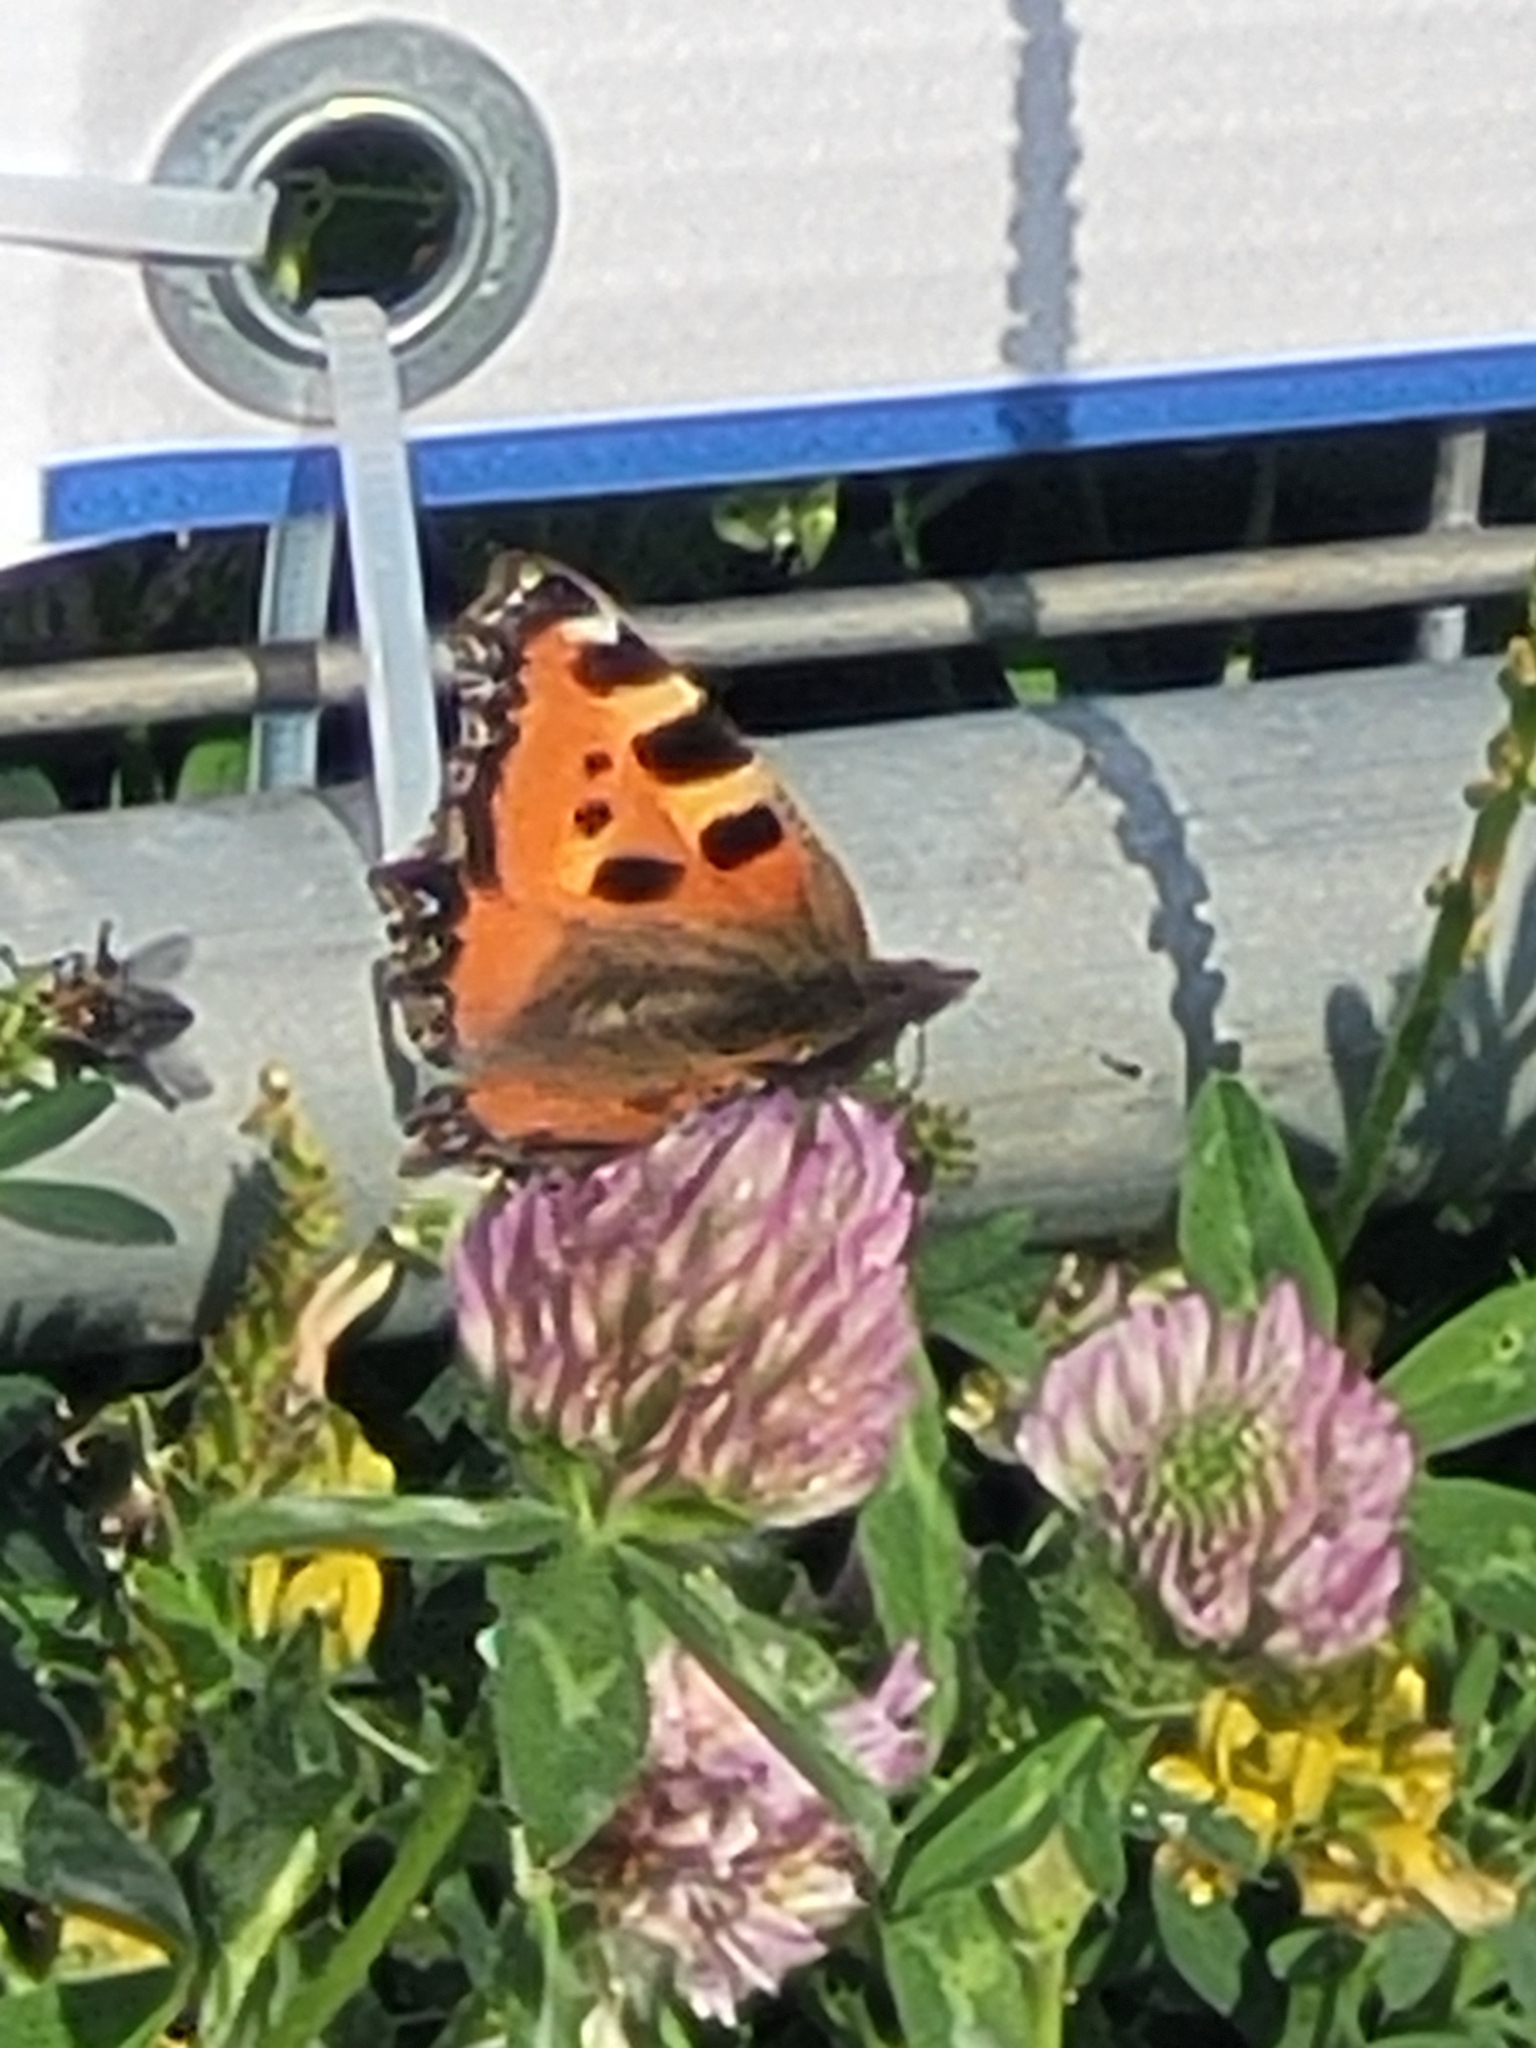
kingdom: Animalia
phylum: Arthropoda
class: Insecta
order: Lepidoptera
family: Nymphalidae
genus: Aglais
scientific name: Aglais urticae
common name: Small tortoiseshell
